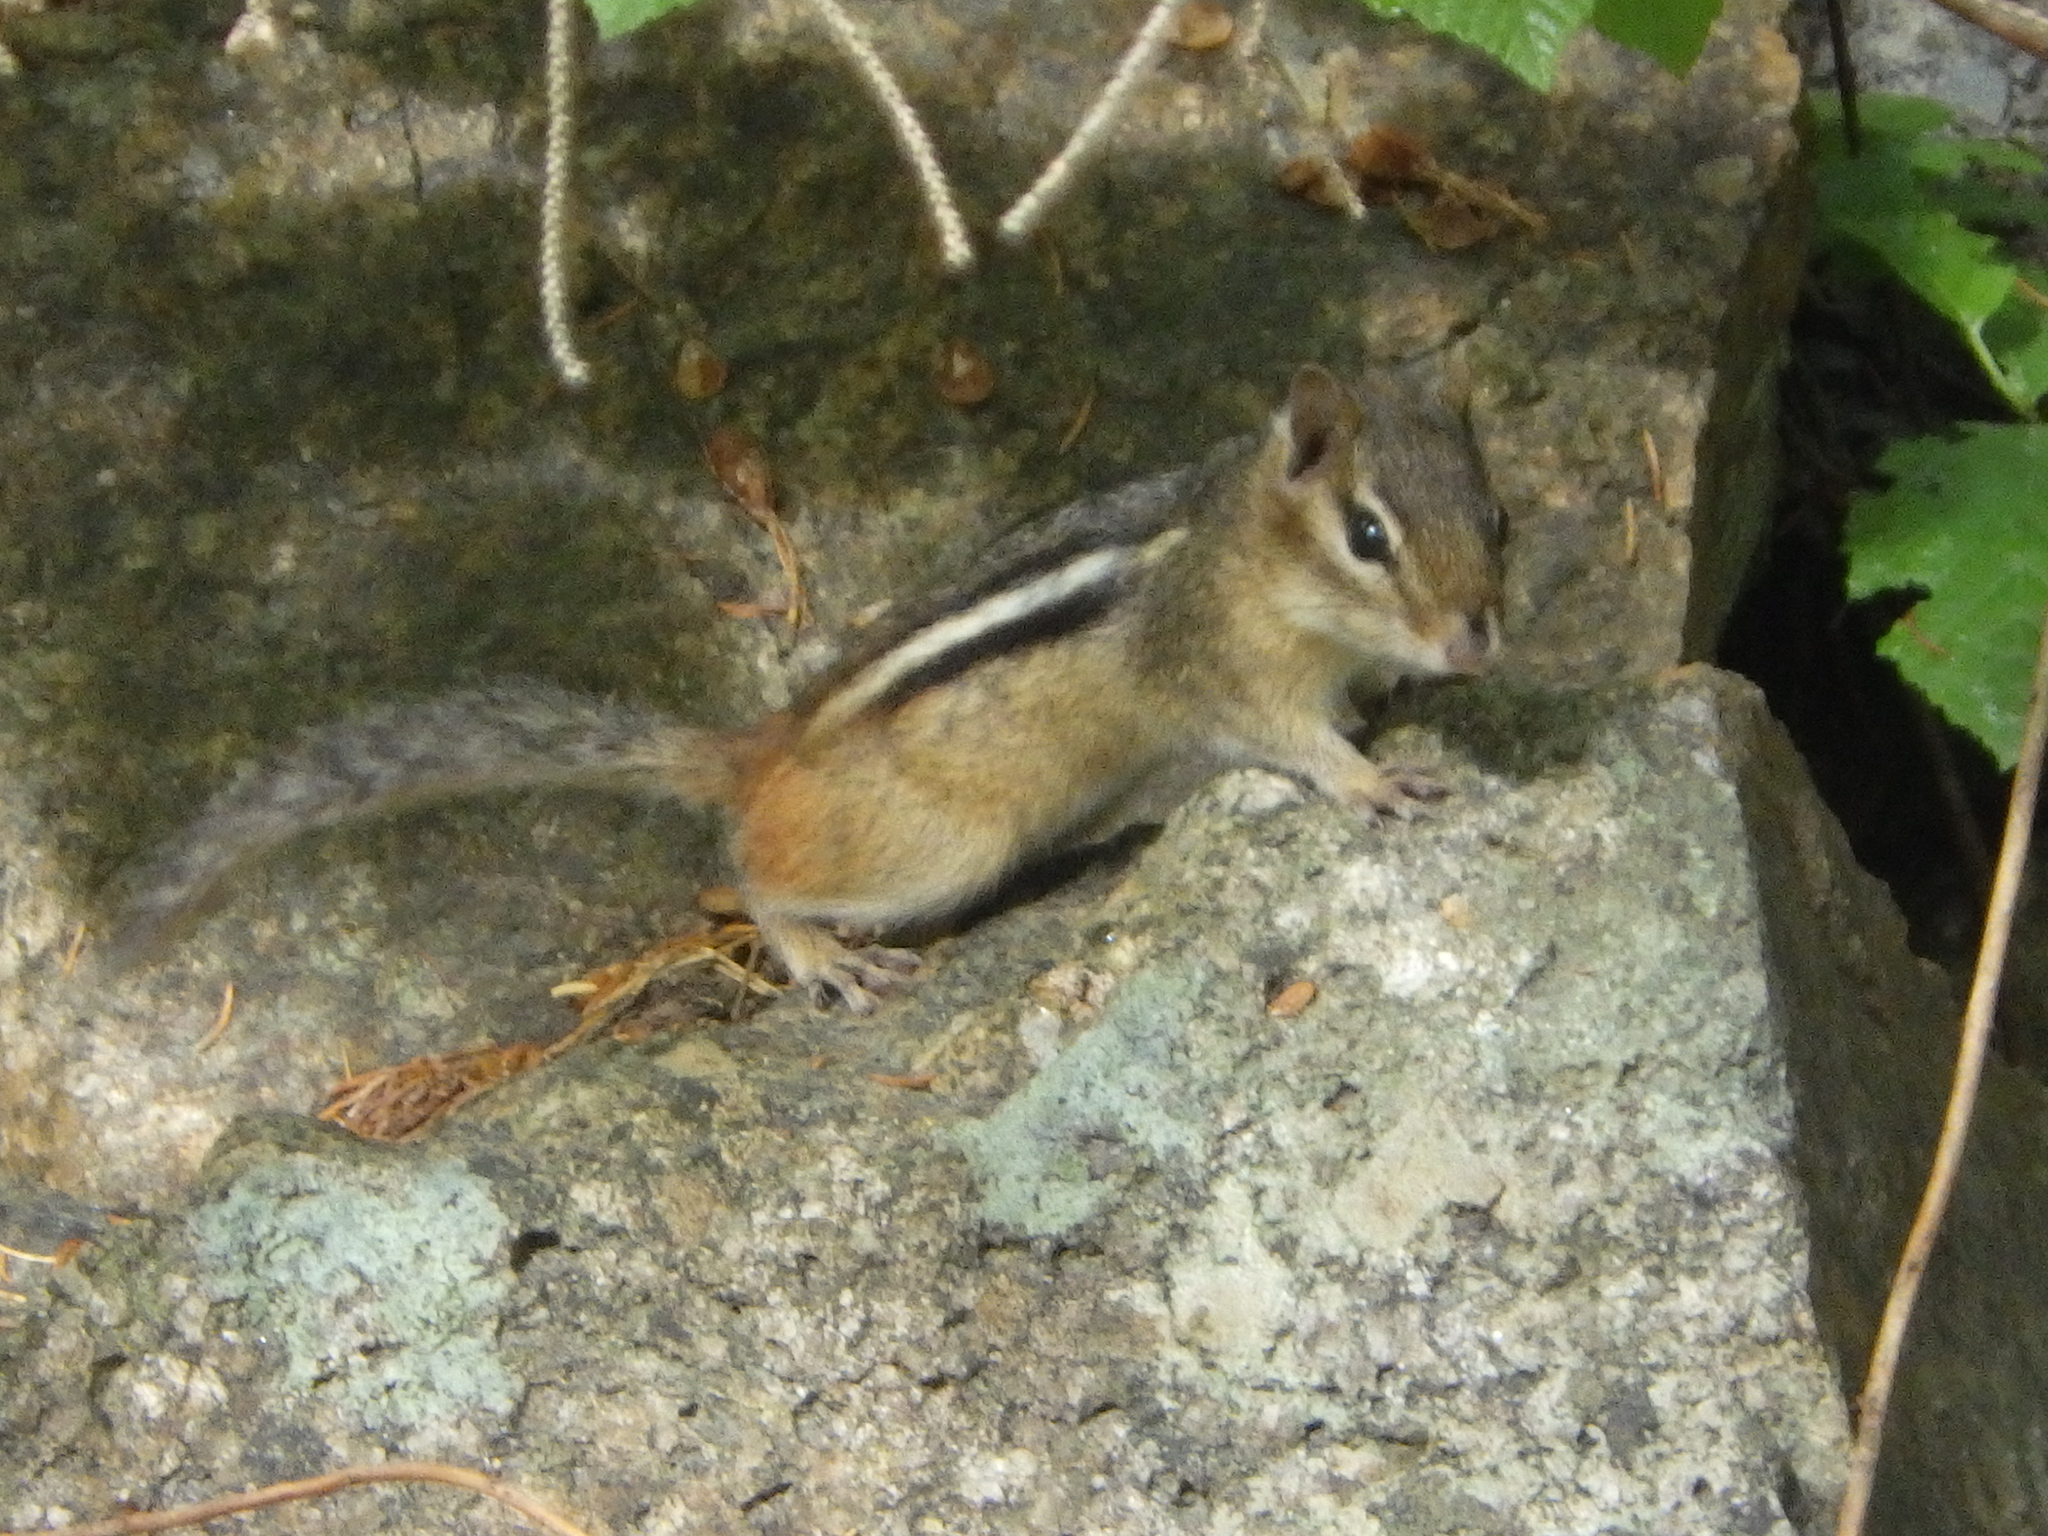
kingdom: Animalia
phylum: Chordata
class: Mammalia
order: Rodentia
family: Sciuridae
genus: Tamias
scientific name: Tamias striatus
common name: Eastern chipmunk
